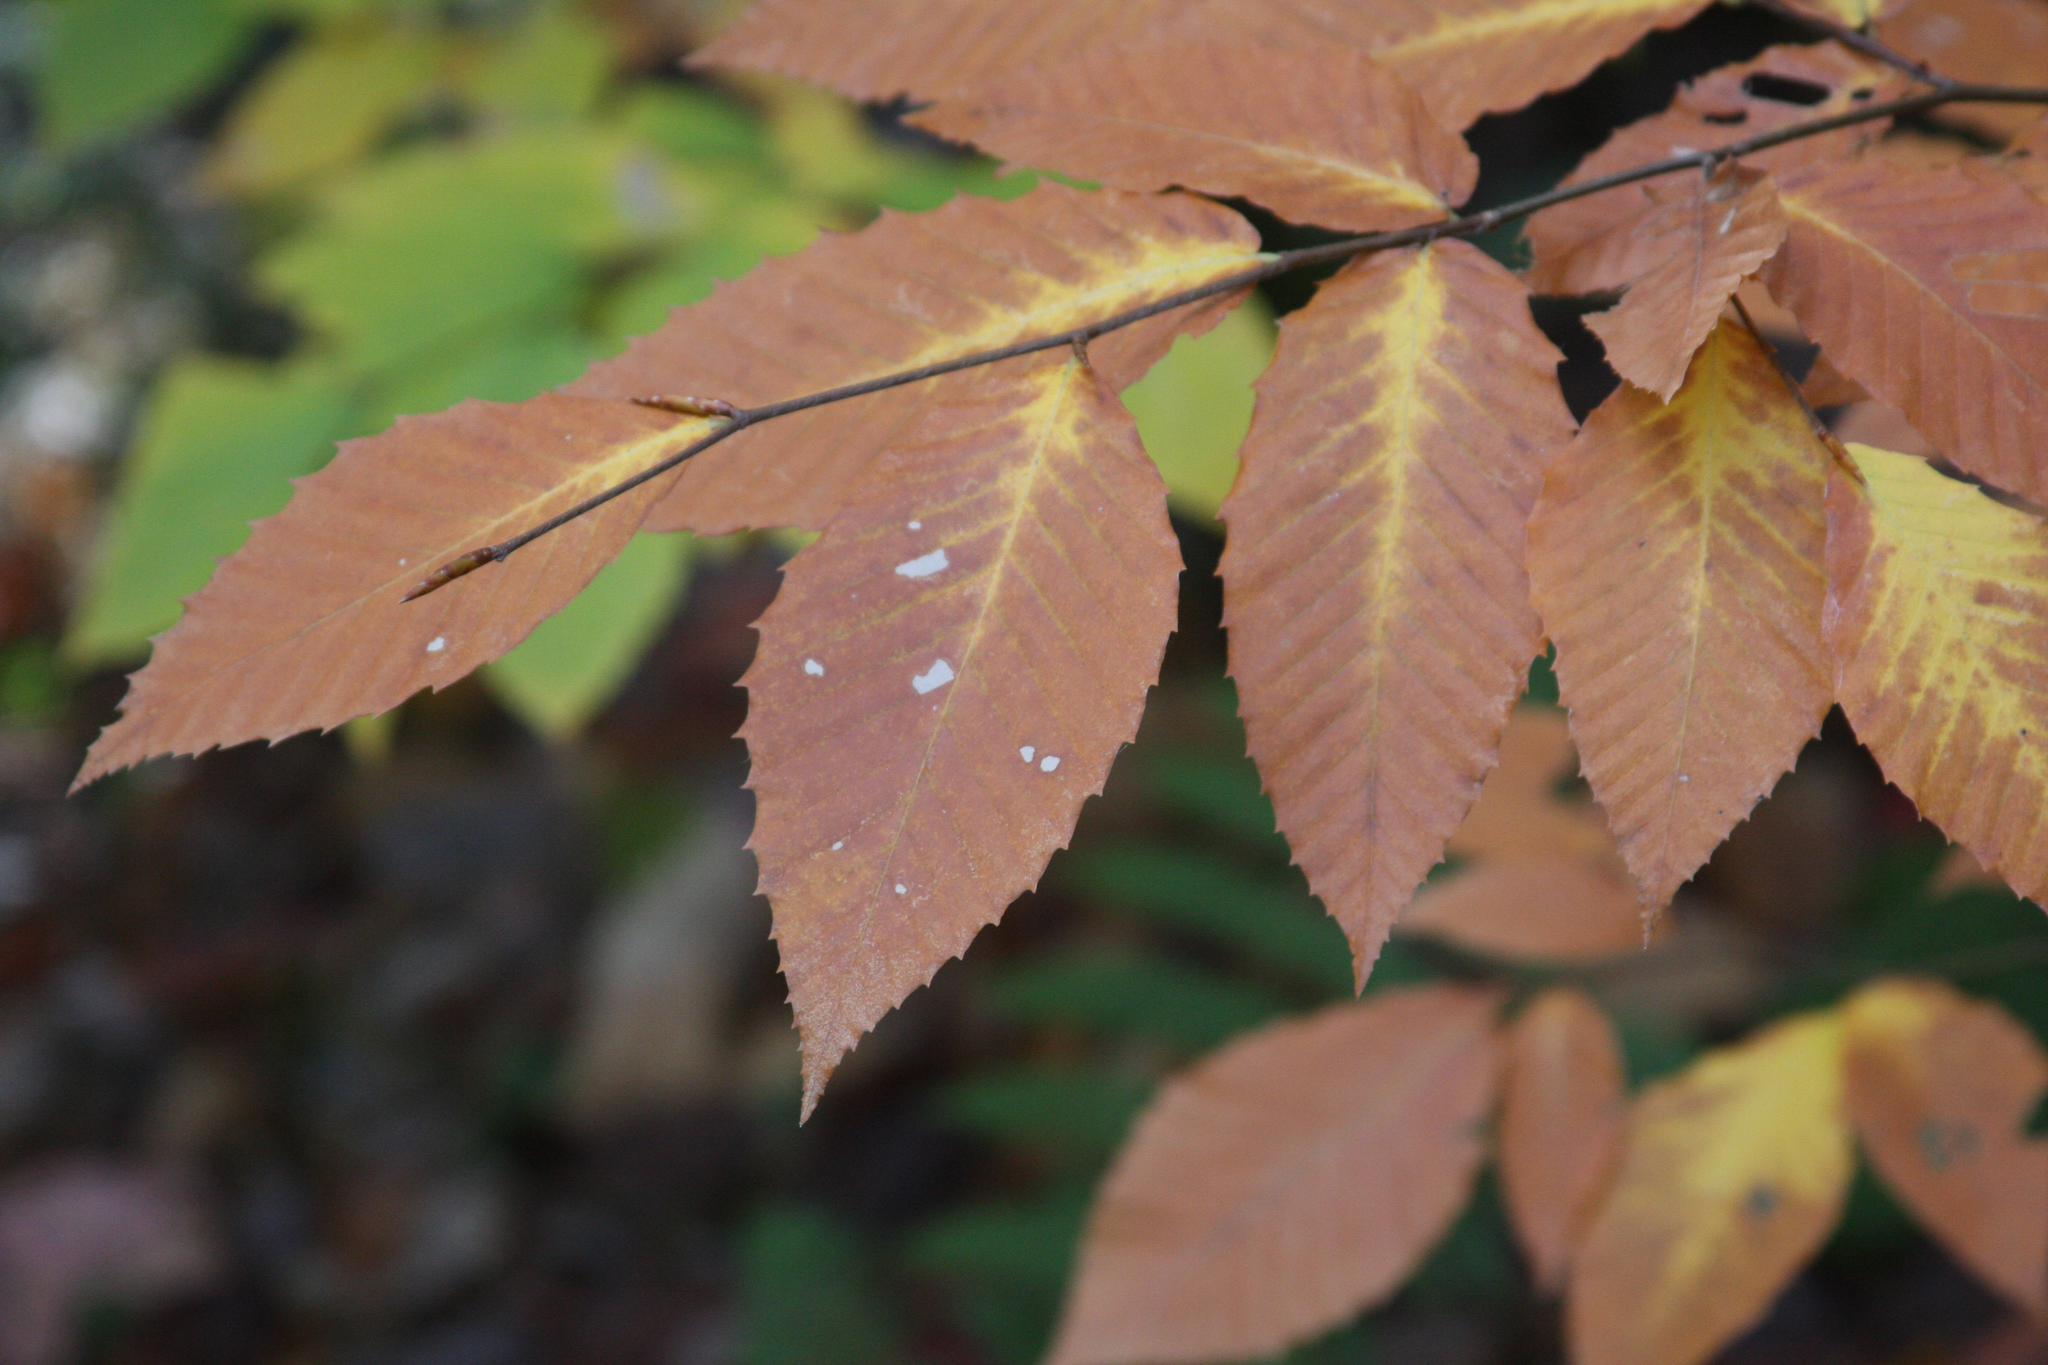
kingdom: Plantae
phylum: Tracheophyta
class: Magnoliopsida
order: Fagales
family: Fagaceae
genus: Fagus
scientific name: Fagus grandifolia
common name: American beech
